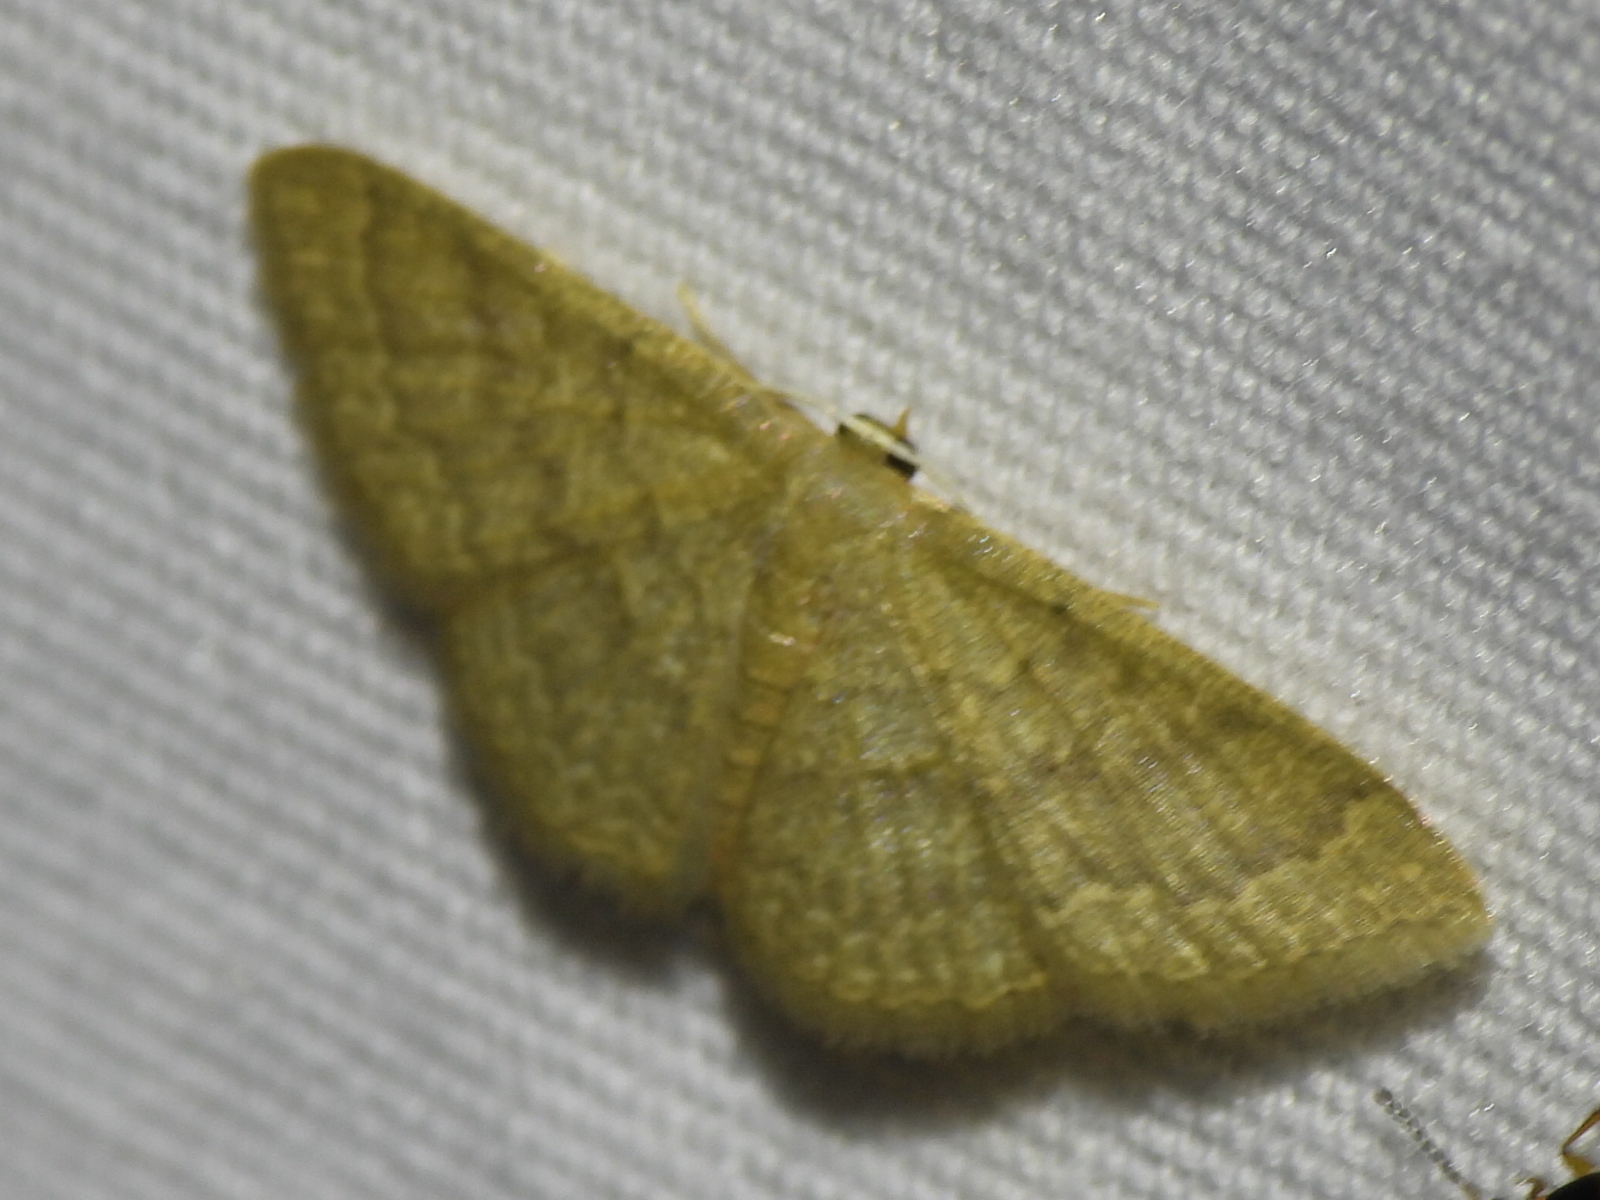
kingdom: Animalia
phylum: Arthropoda
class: Insecta
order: Lepidoptera
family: Geometridae
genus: Pleuroprucha
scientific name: Pleuroprucha insulsaria
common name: Common tan wave
